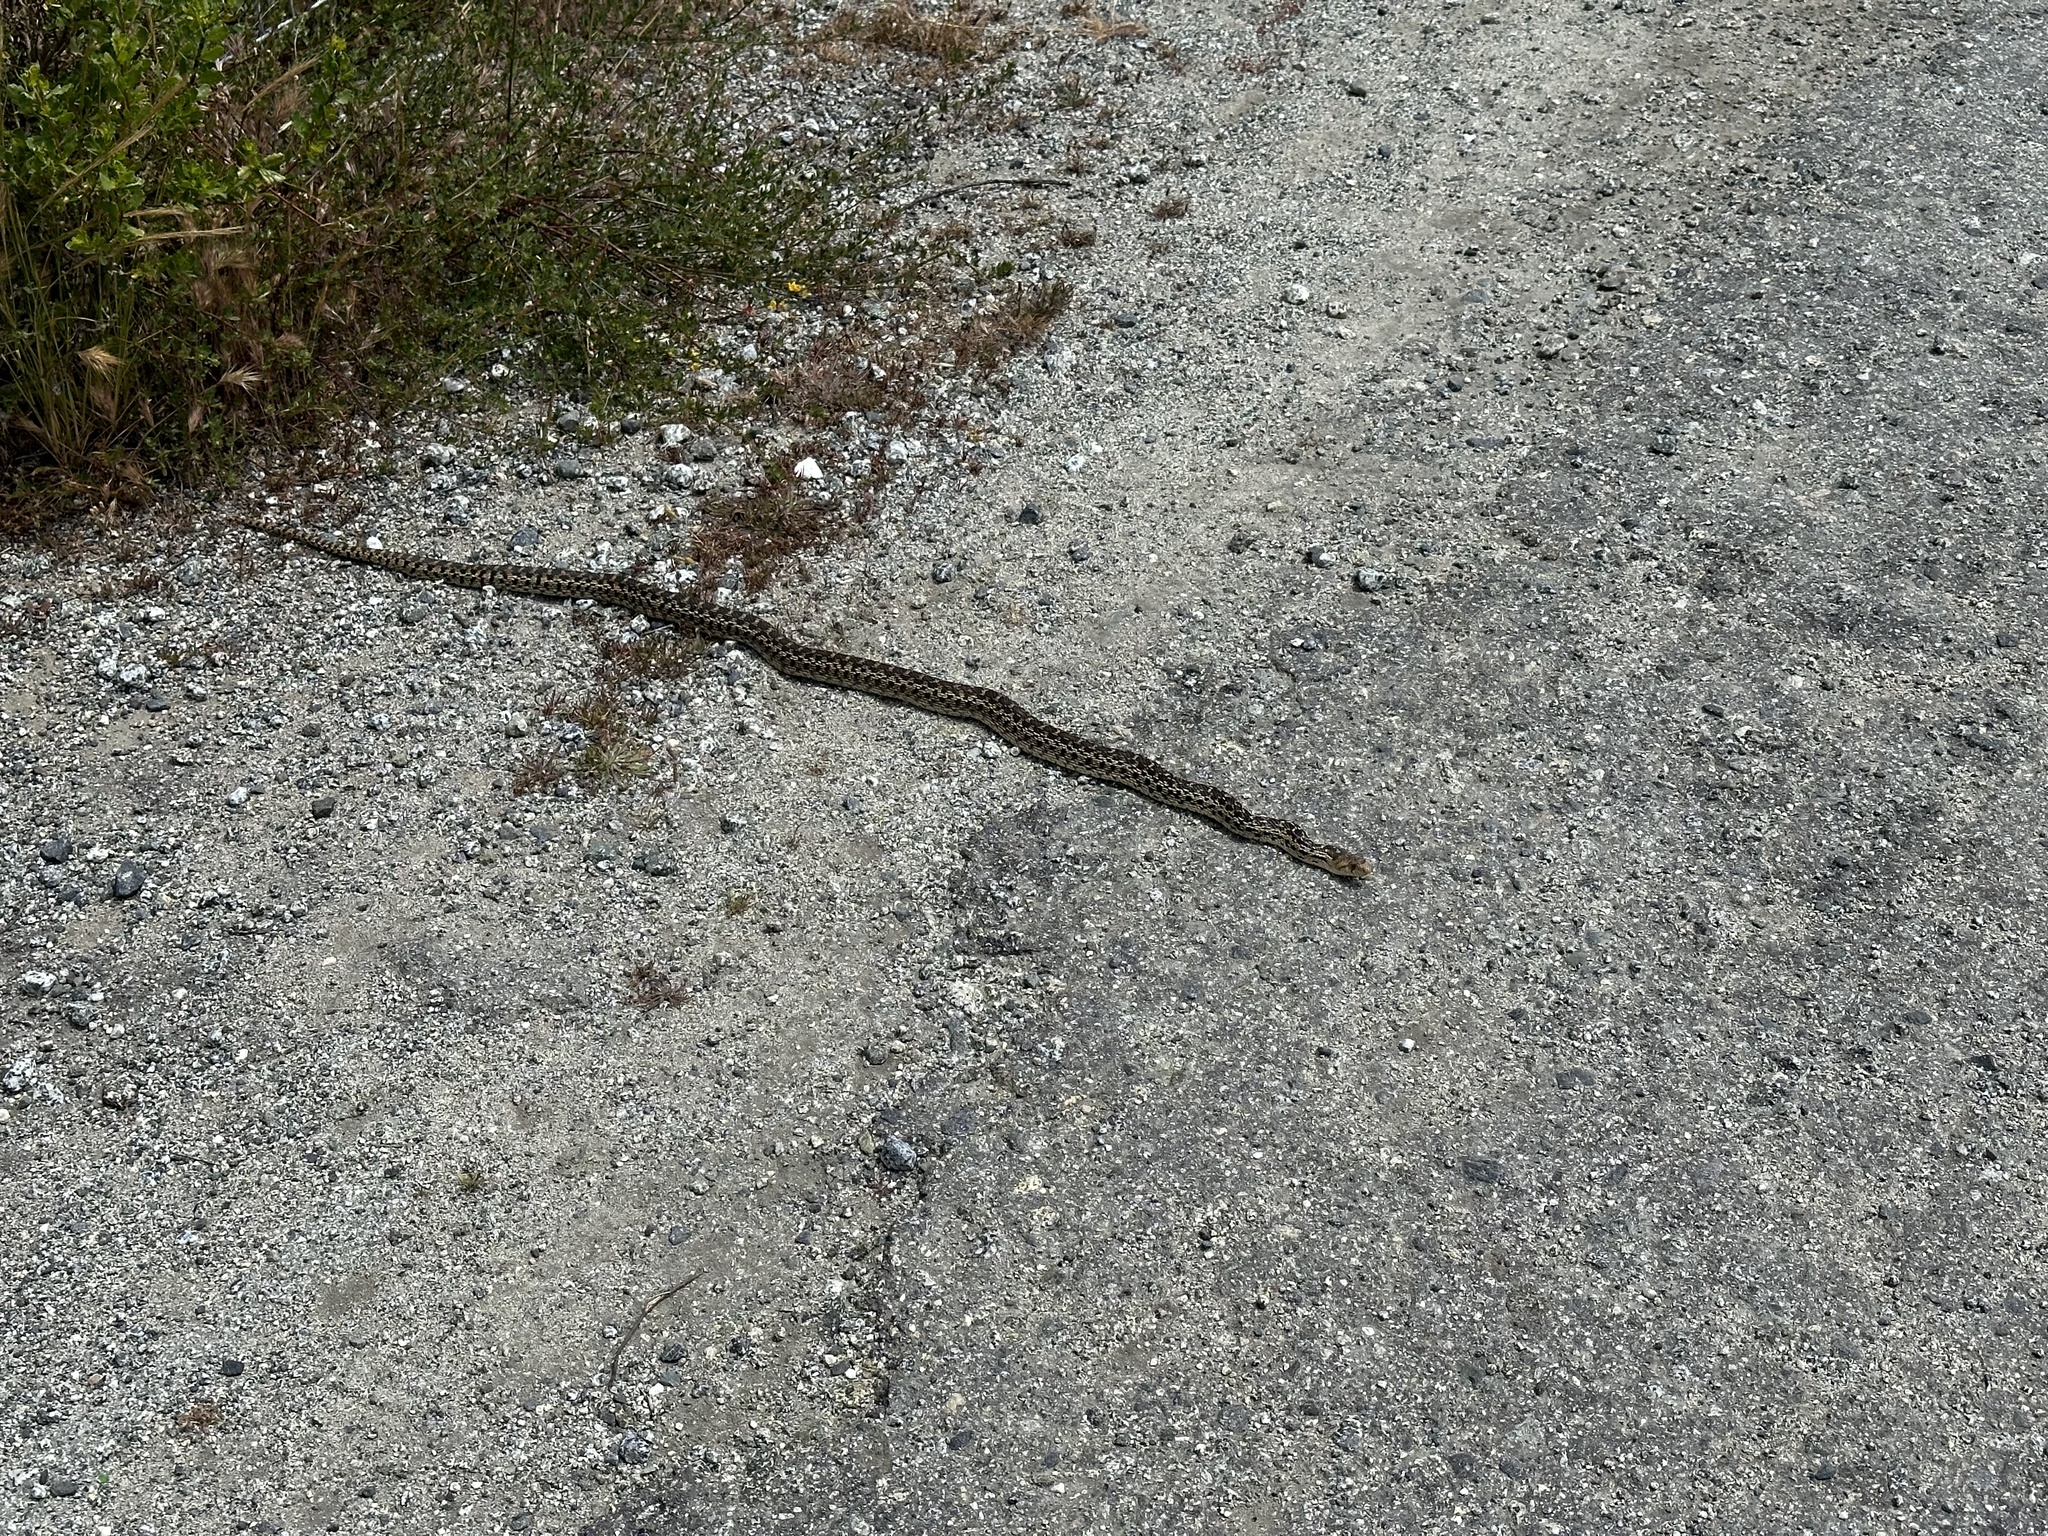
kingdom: Animalia
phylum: Chordata
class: Squamata
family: Colubridae
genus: Pituophis
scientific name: Pituophis catenifer
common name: Gopher snake
